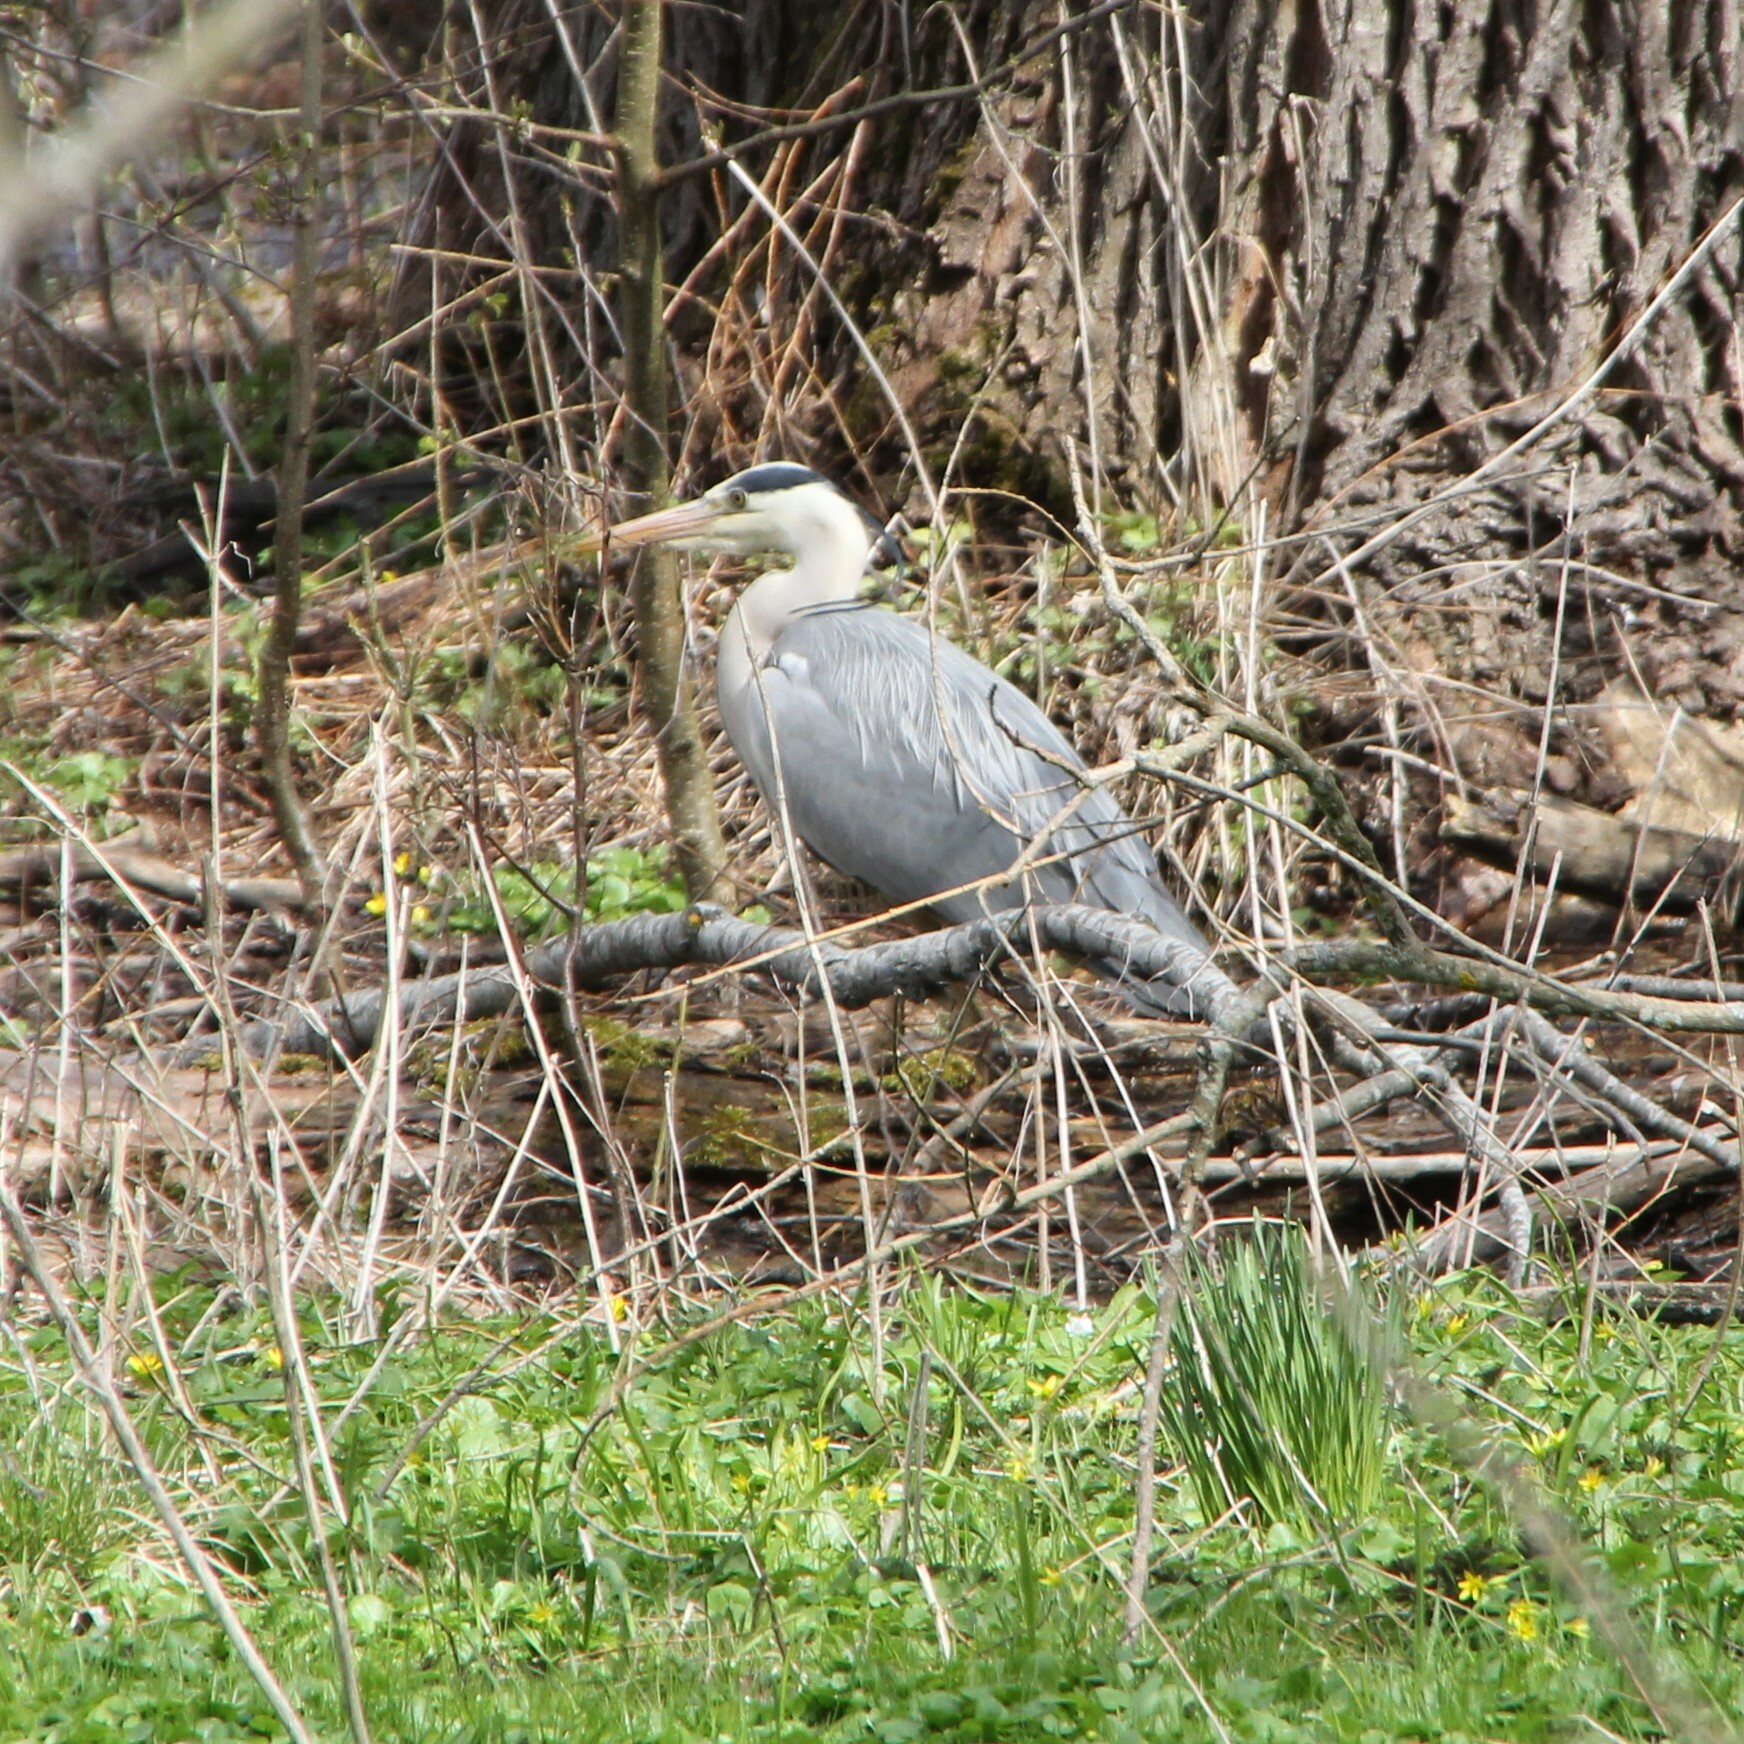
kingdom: Animalia
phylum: Chordata
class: Aves
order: Pelecaniformes
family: Ardeidae
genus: Ardea
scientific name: Ardea cinerea
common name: Grey heron
